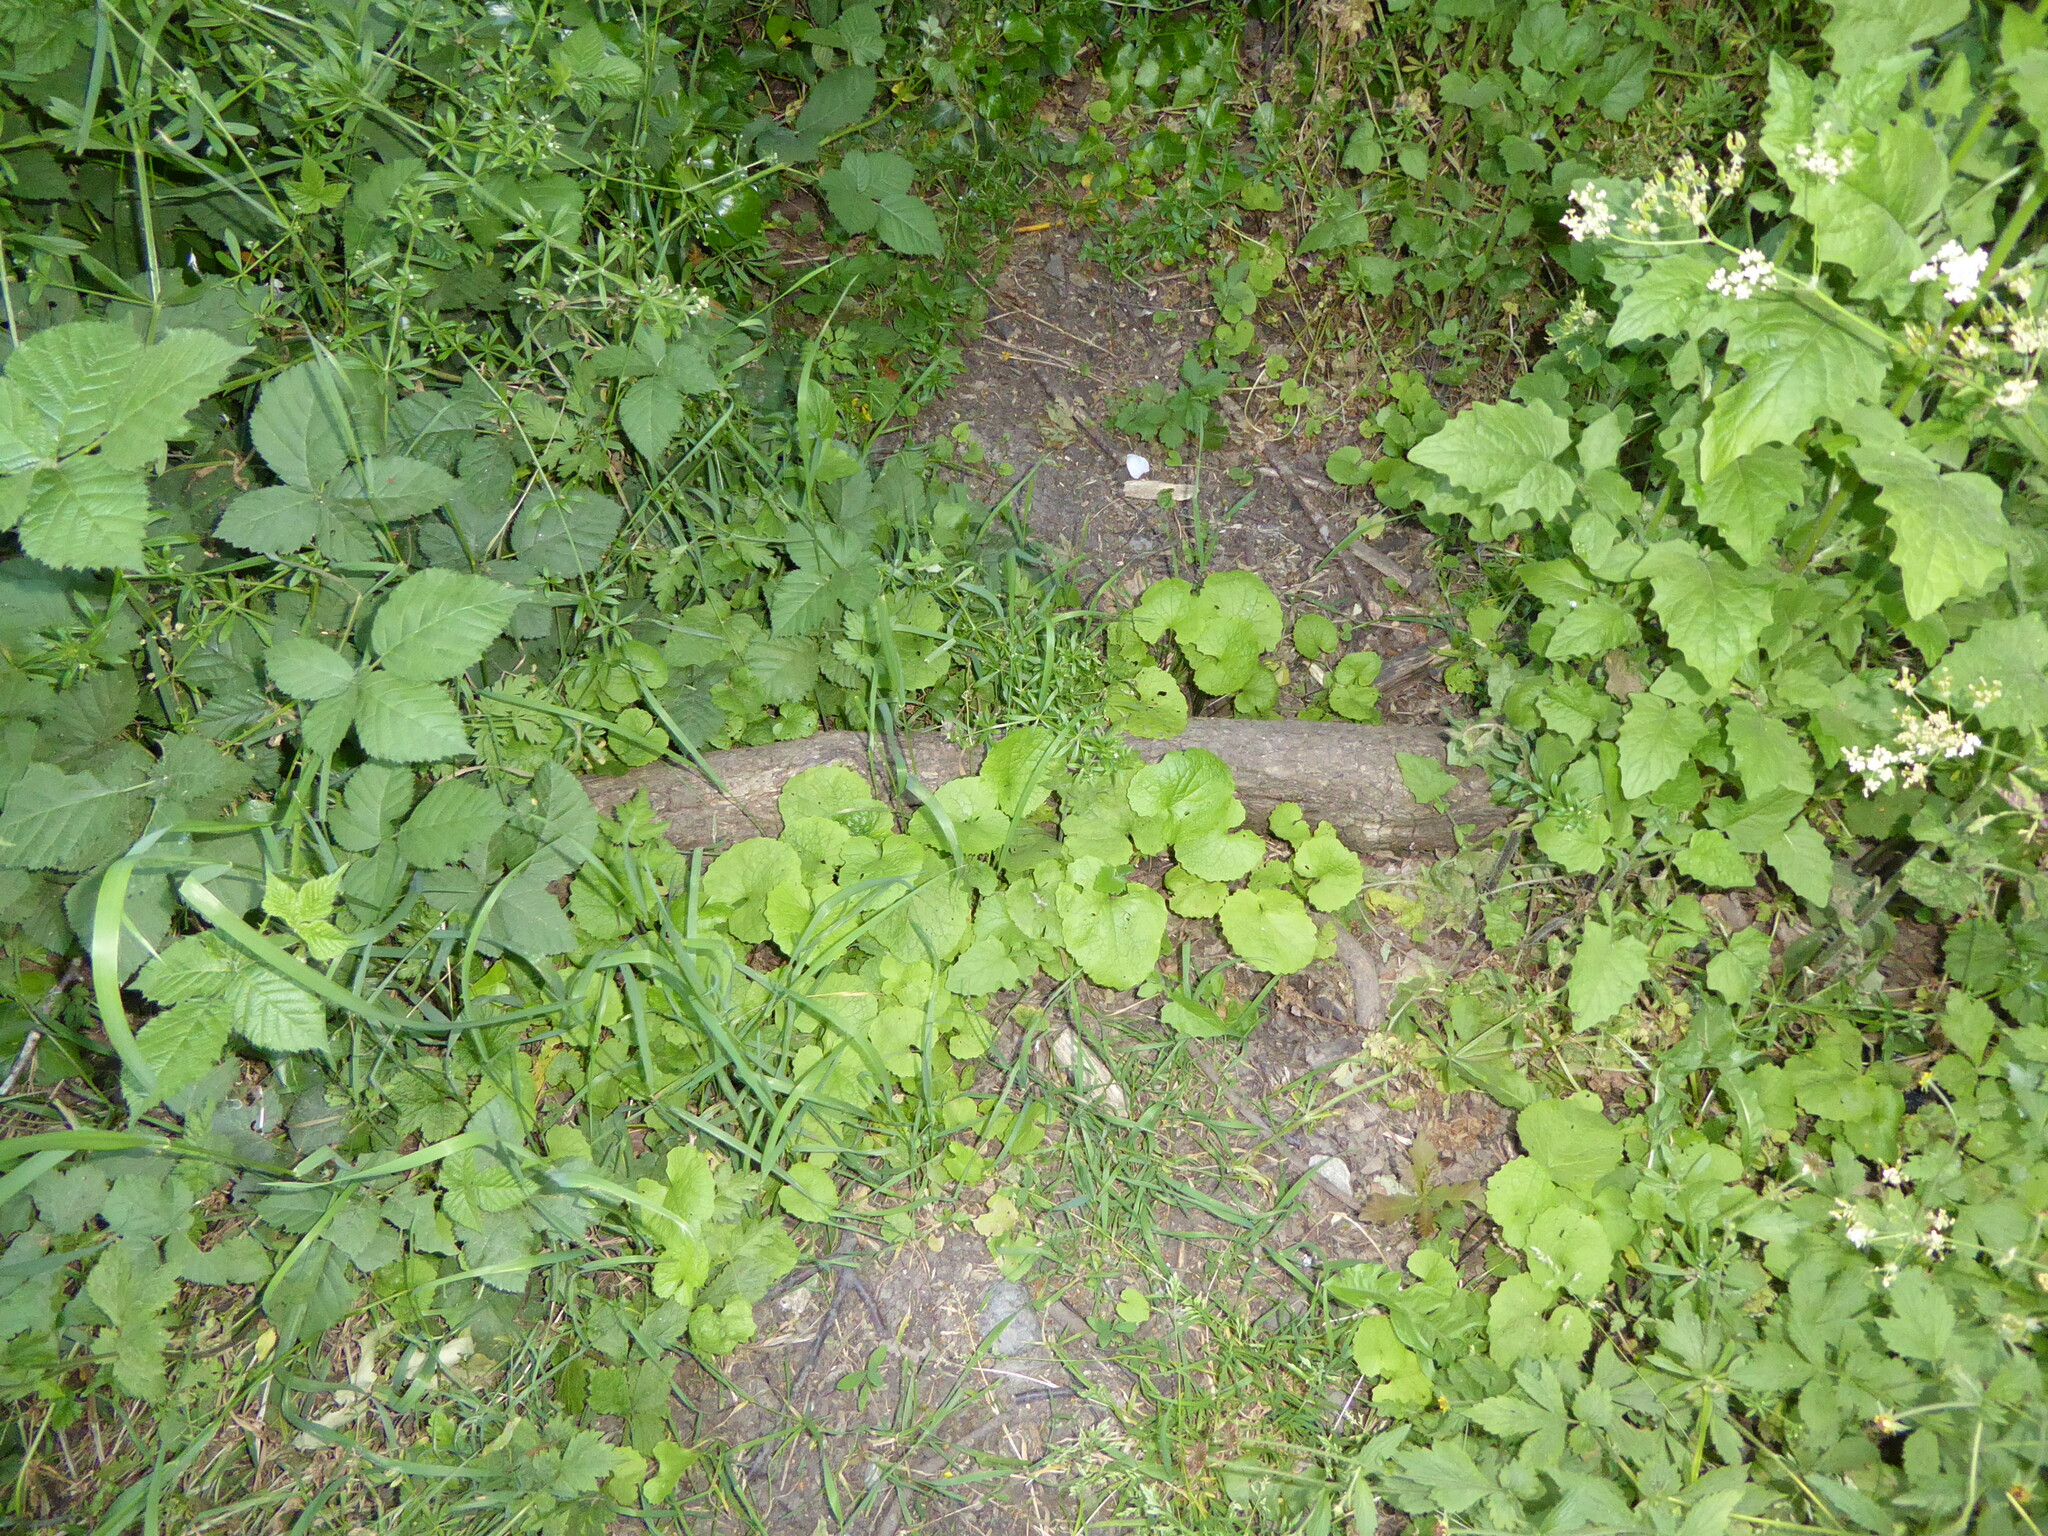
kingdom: Plantae
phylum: Tracheophyta
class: Magnoliopsida
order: Brassicales
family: Brassicaceae
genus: Alliaria
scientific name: Alliaria petiolata
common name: Garlic mustard
